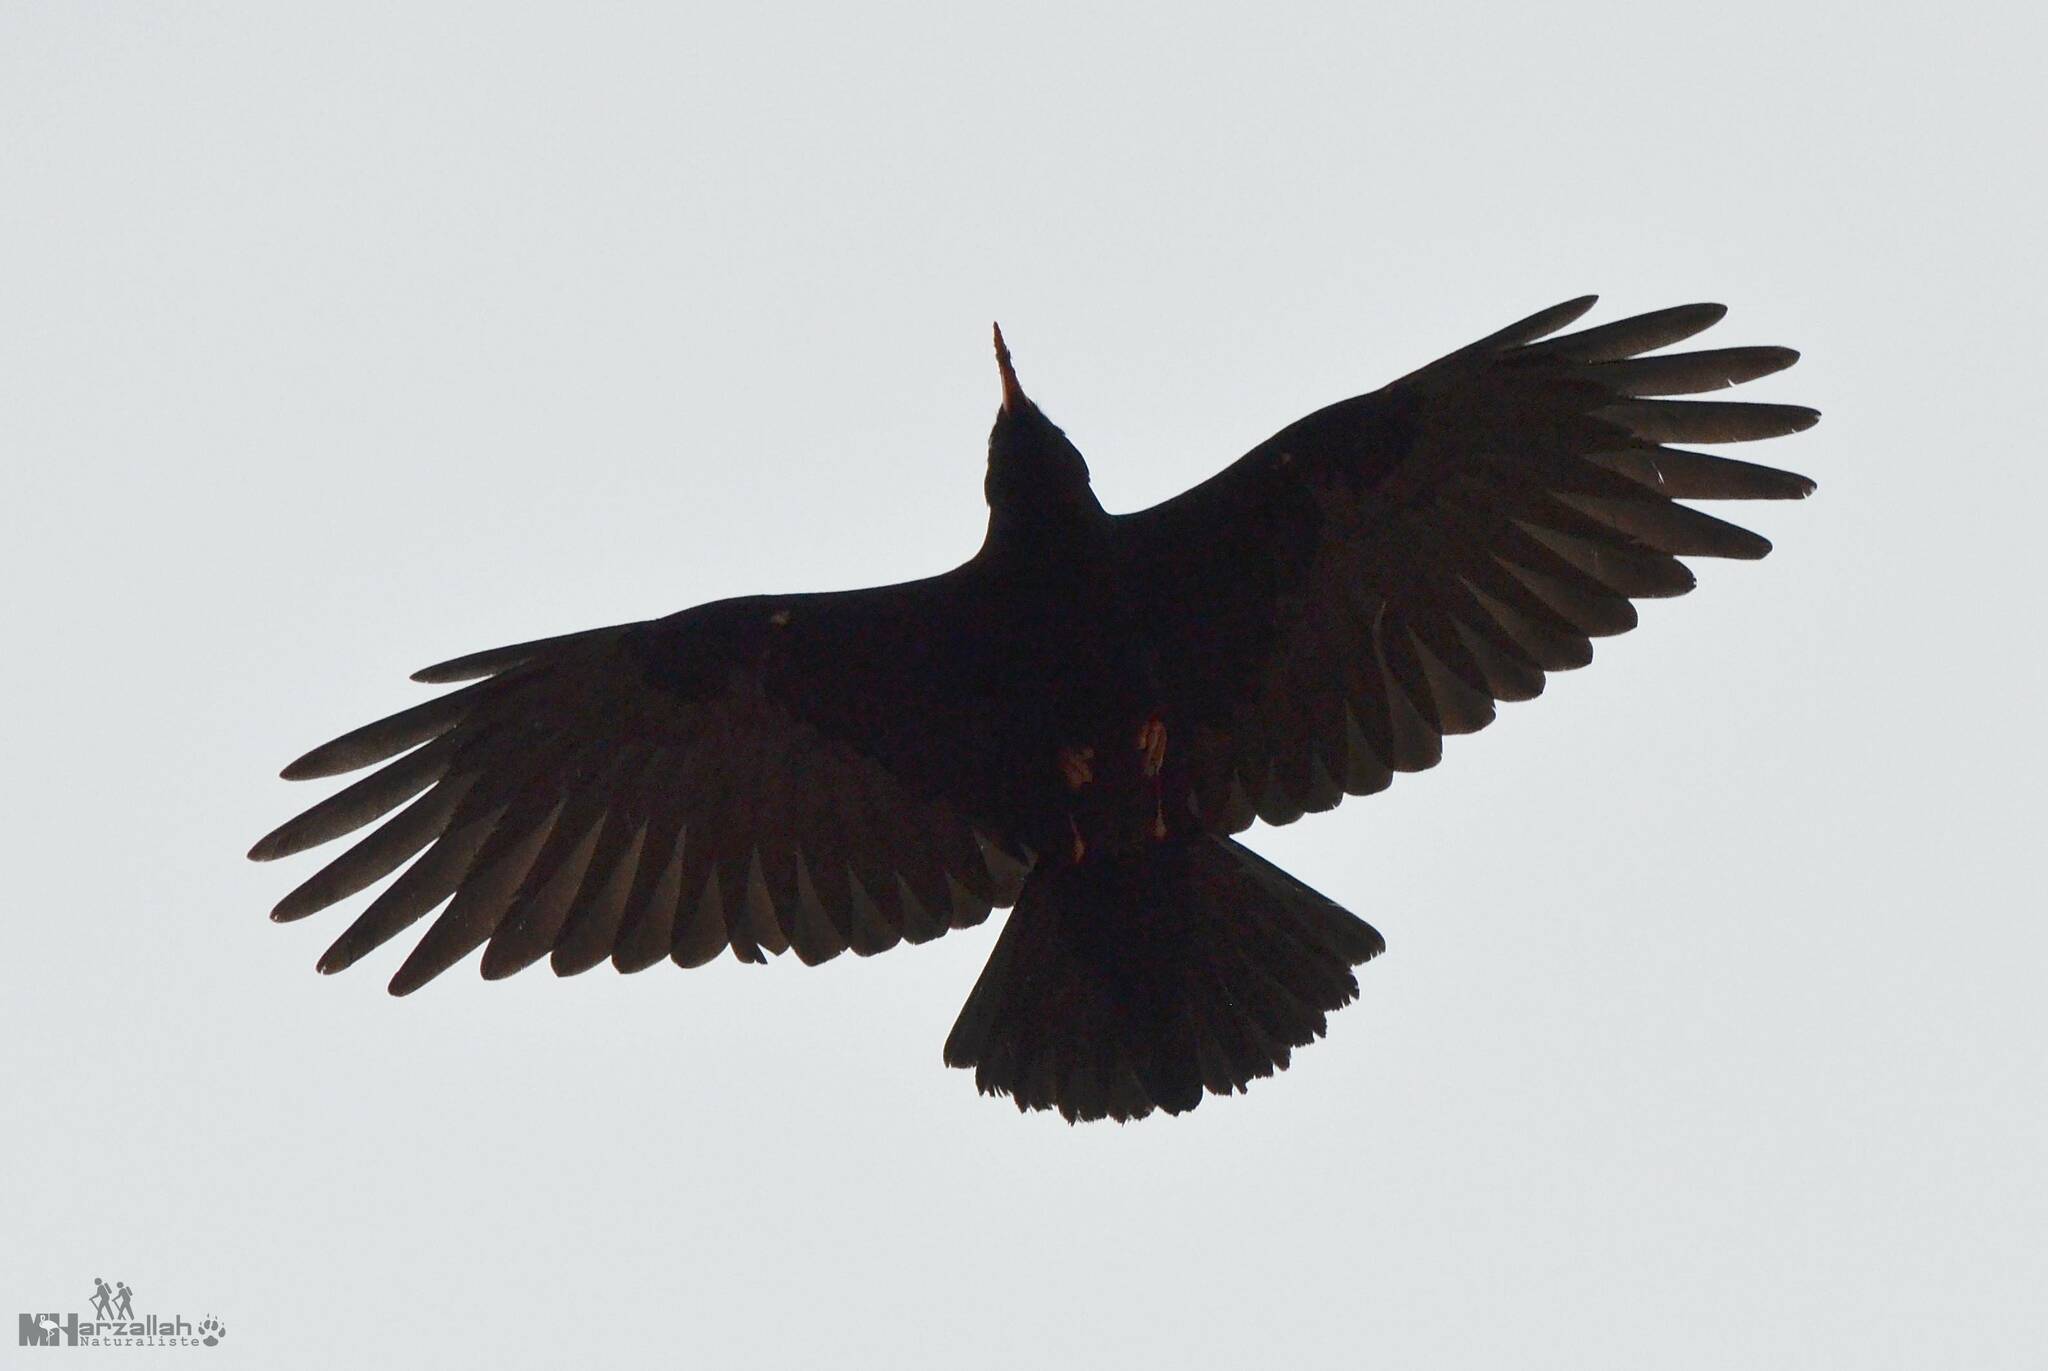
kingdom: Animalia
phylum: Chordata
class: Aves
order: Passeriformes
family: Corvidae
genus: Pyrrhocorax
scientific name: Pyrrhocorax pyrrhocorax
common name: Red-billed chough
